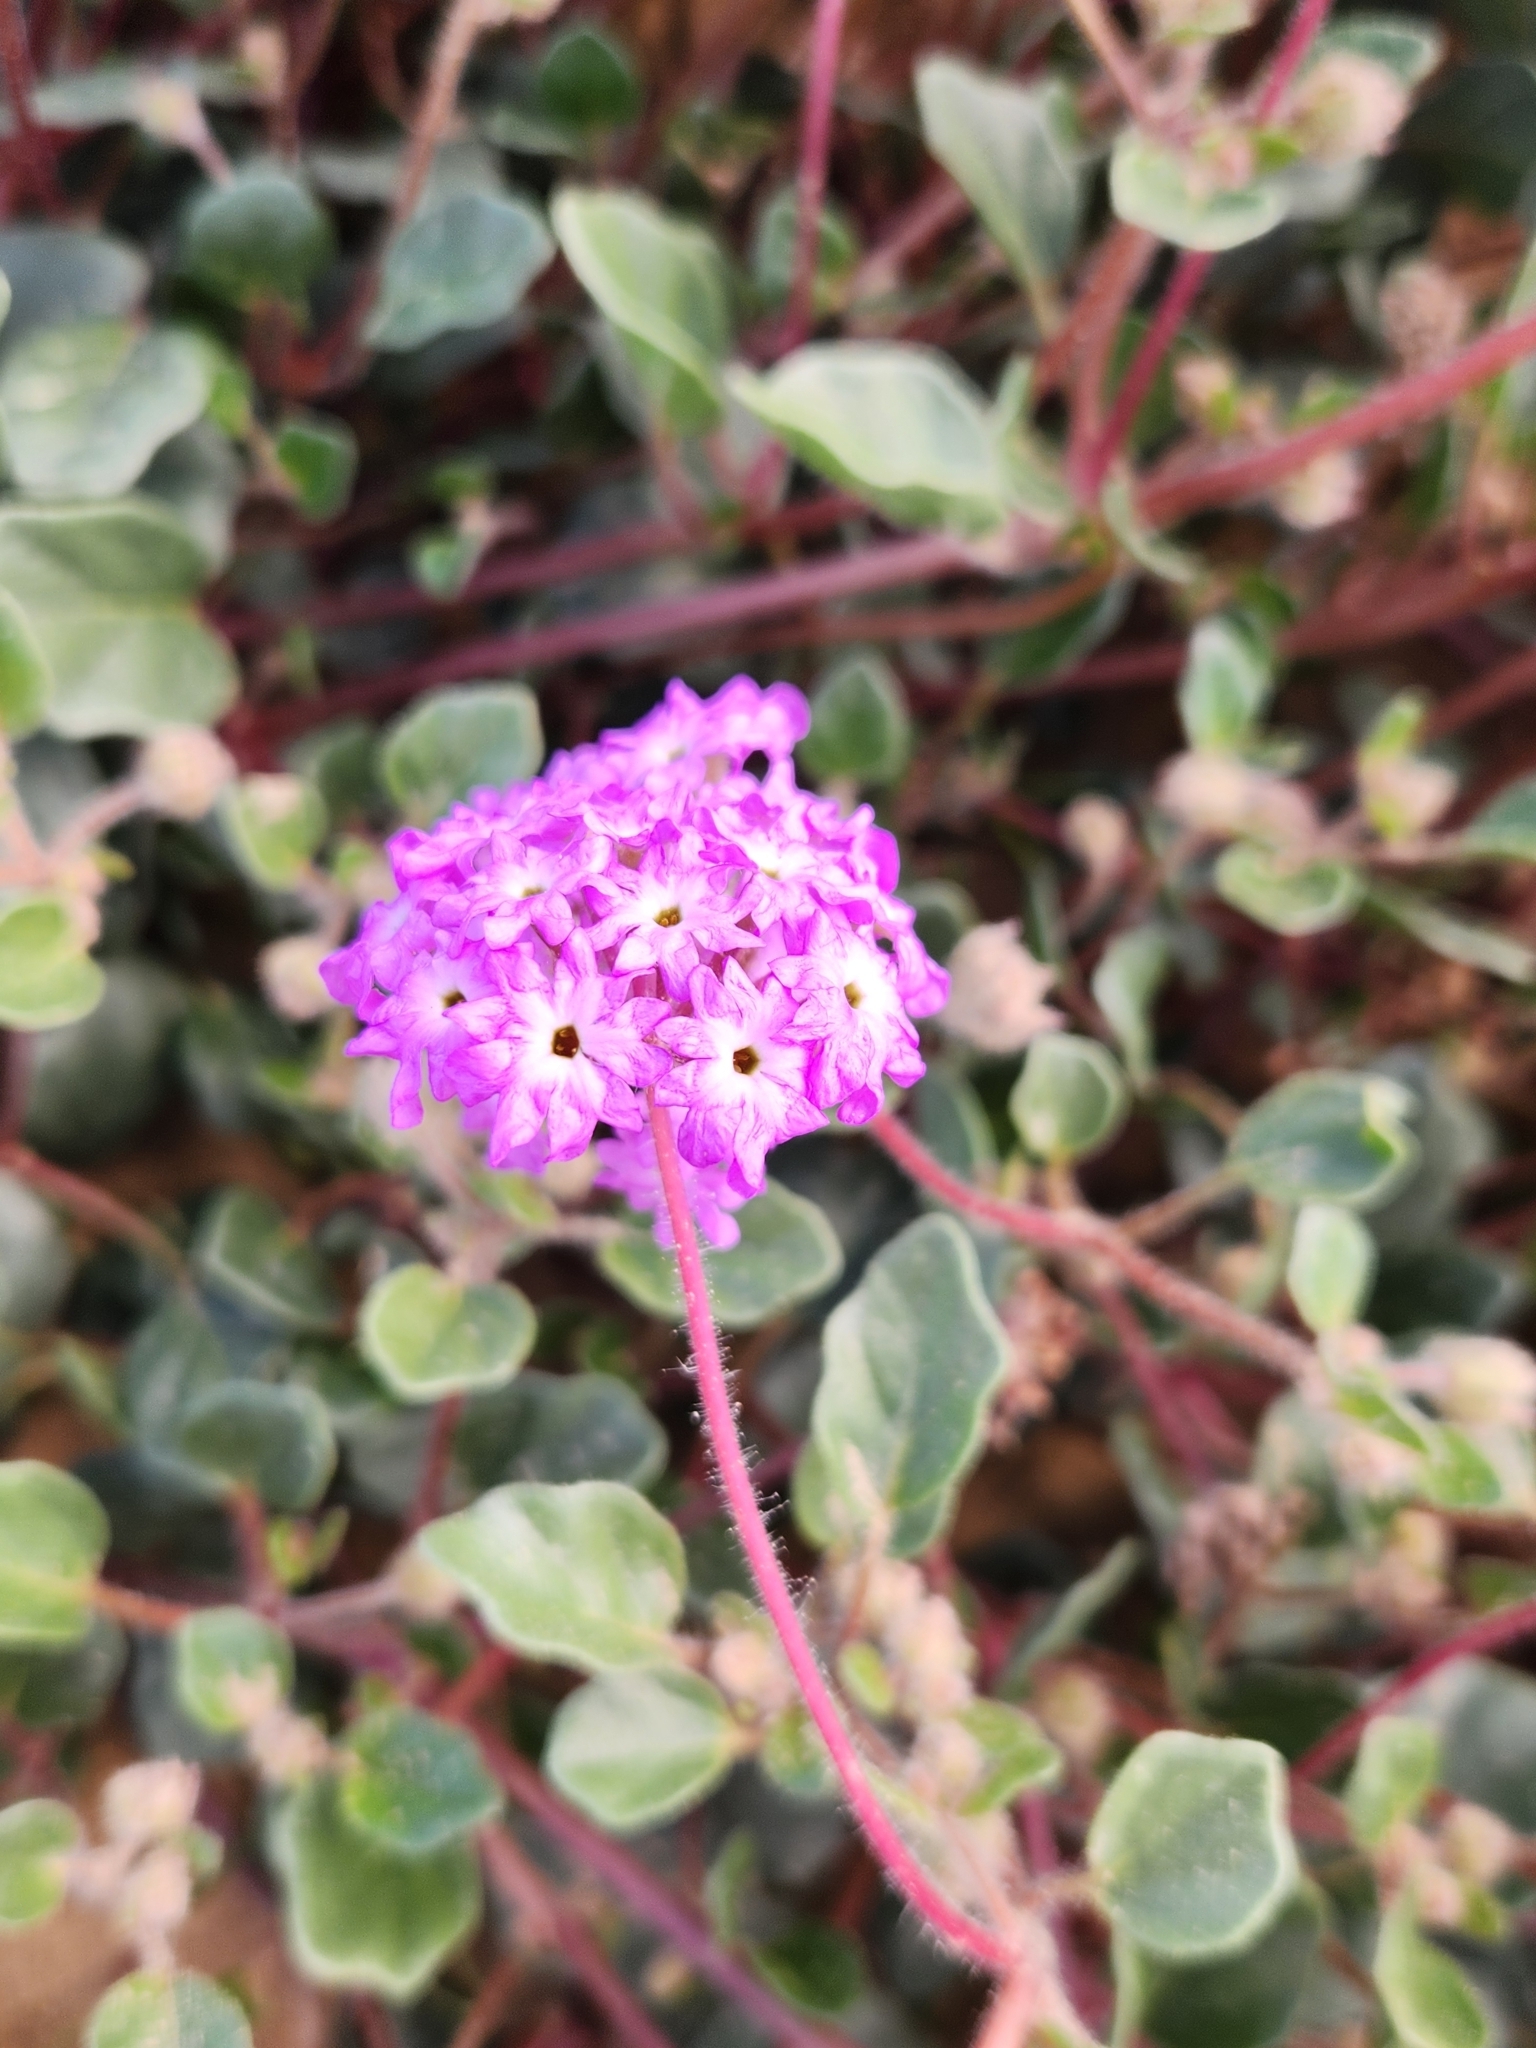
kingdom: Plantae
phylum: Tracheophyta
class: Magnoliopsida
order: Caryophyllales
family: Nyctaginaceae
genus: Abronia
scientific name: Abronia villosa
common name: Desert sand-verbena
